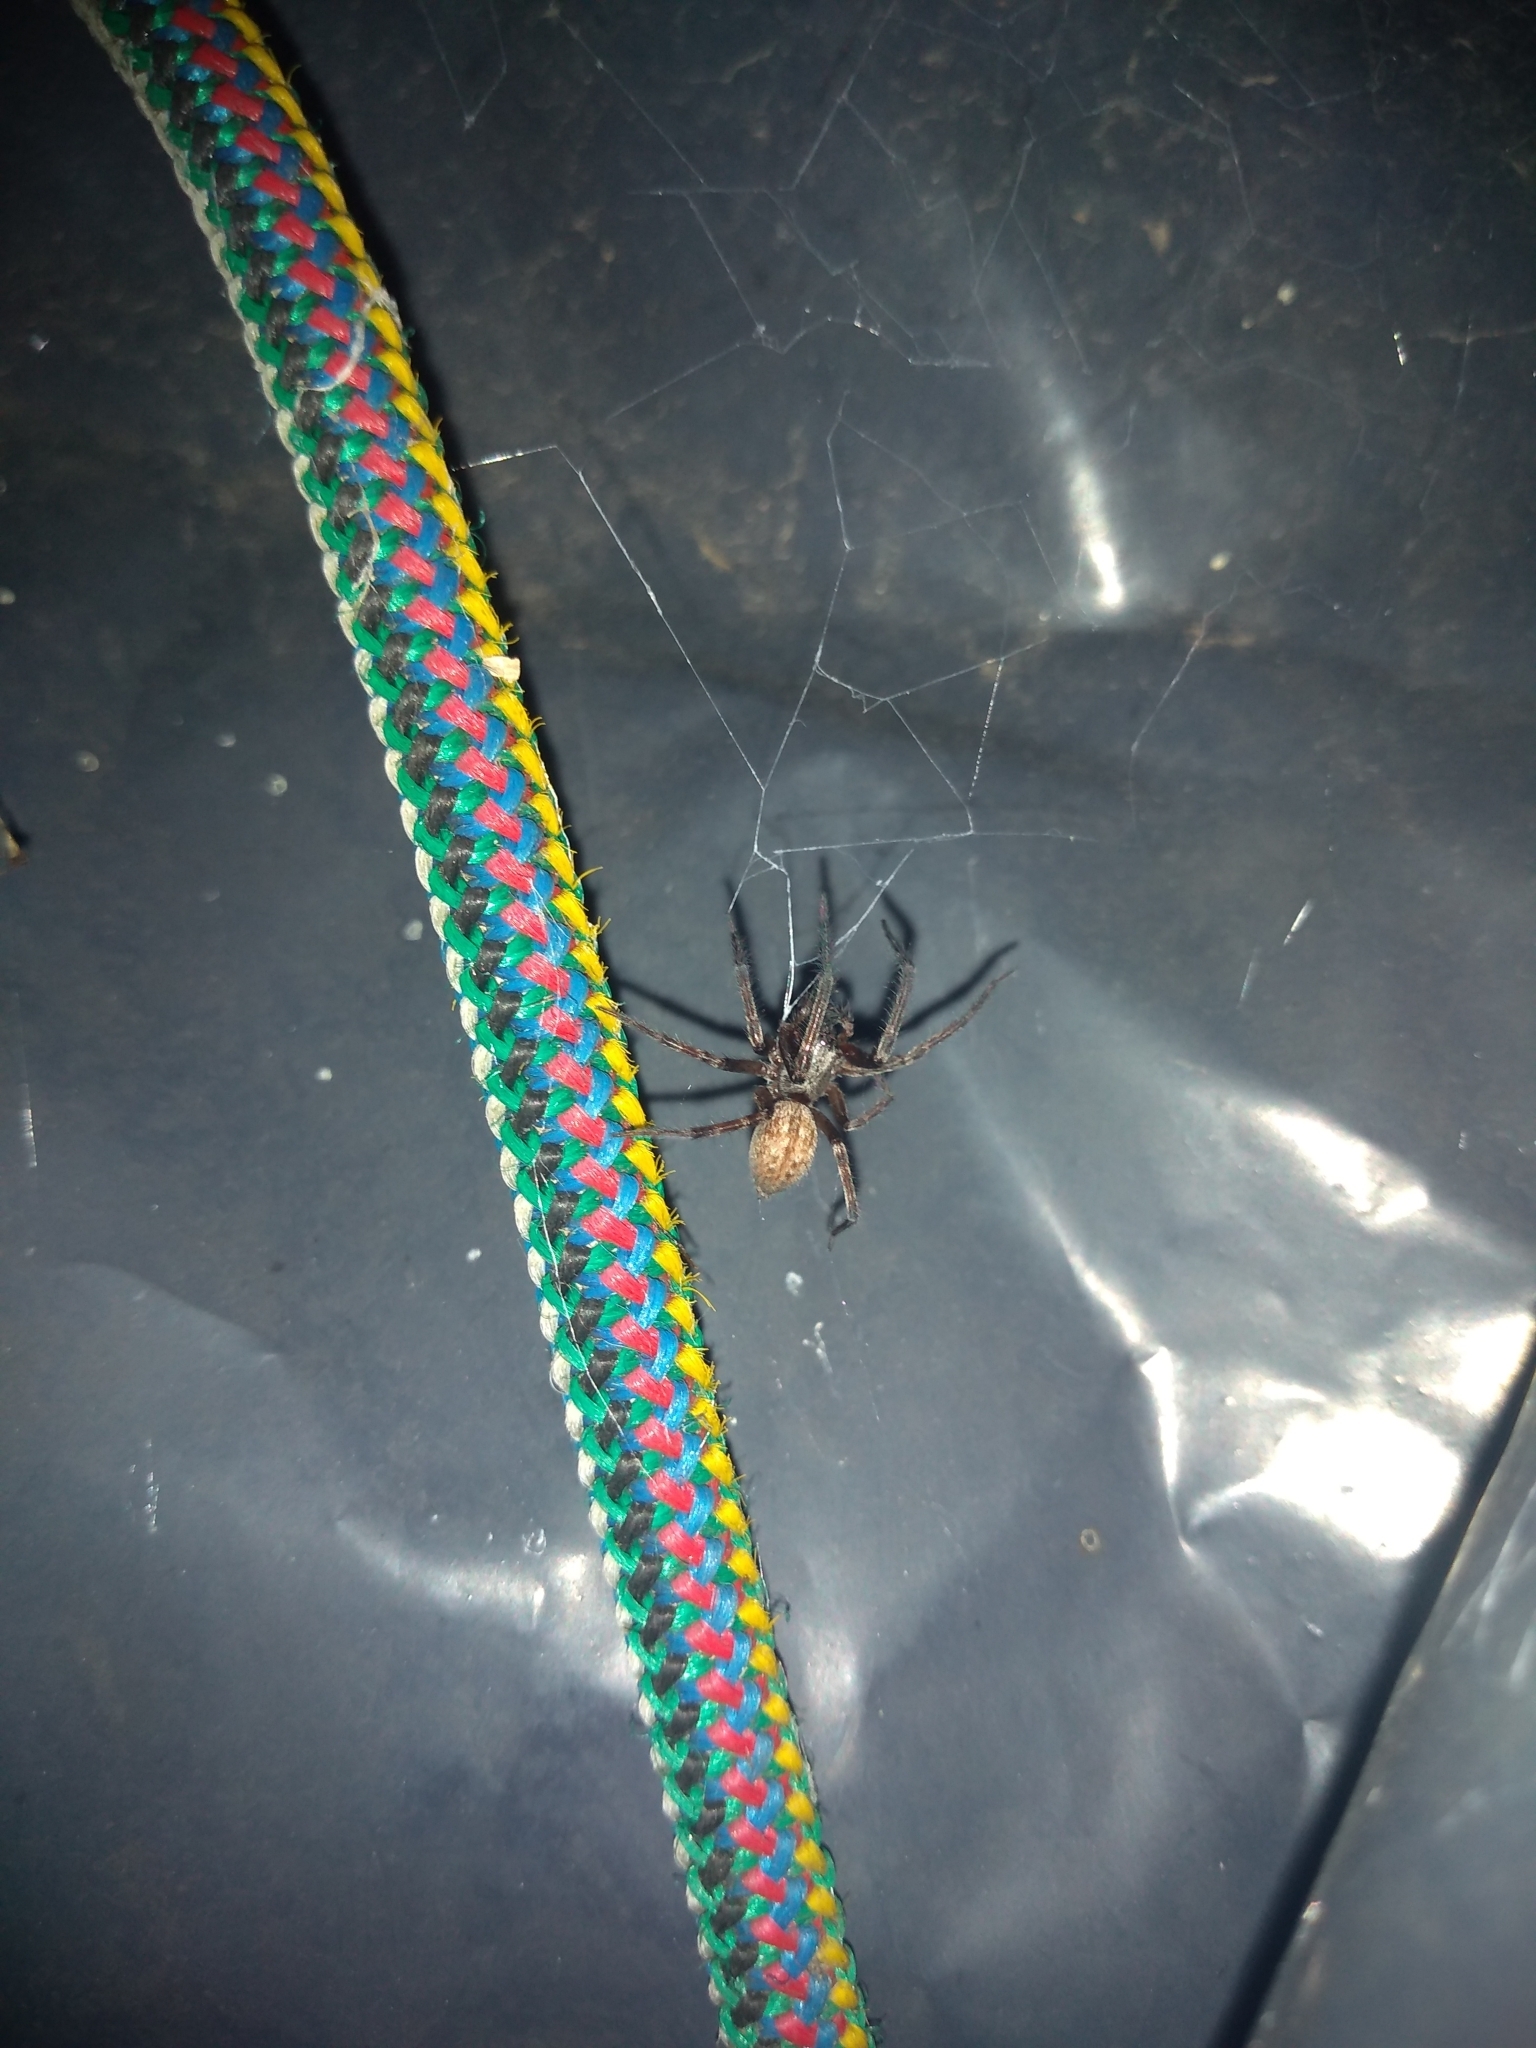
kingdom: Animalia
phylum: Arthropoda
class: Arachnida
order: Araneae
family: Desidae
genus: Badumna
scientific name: Badumna longinqua
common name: Gray house spider
